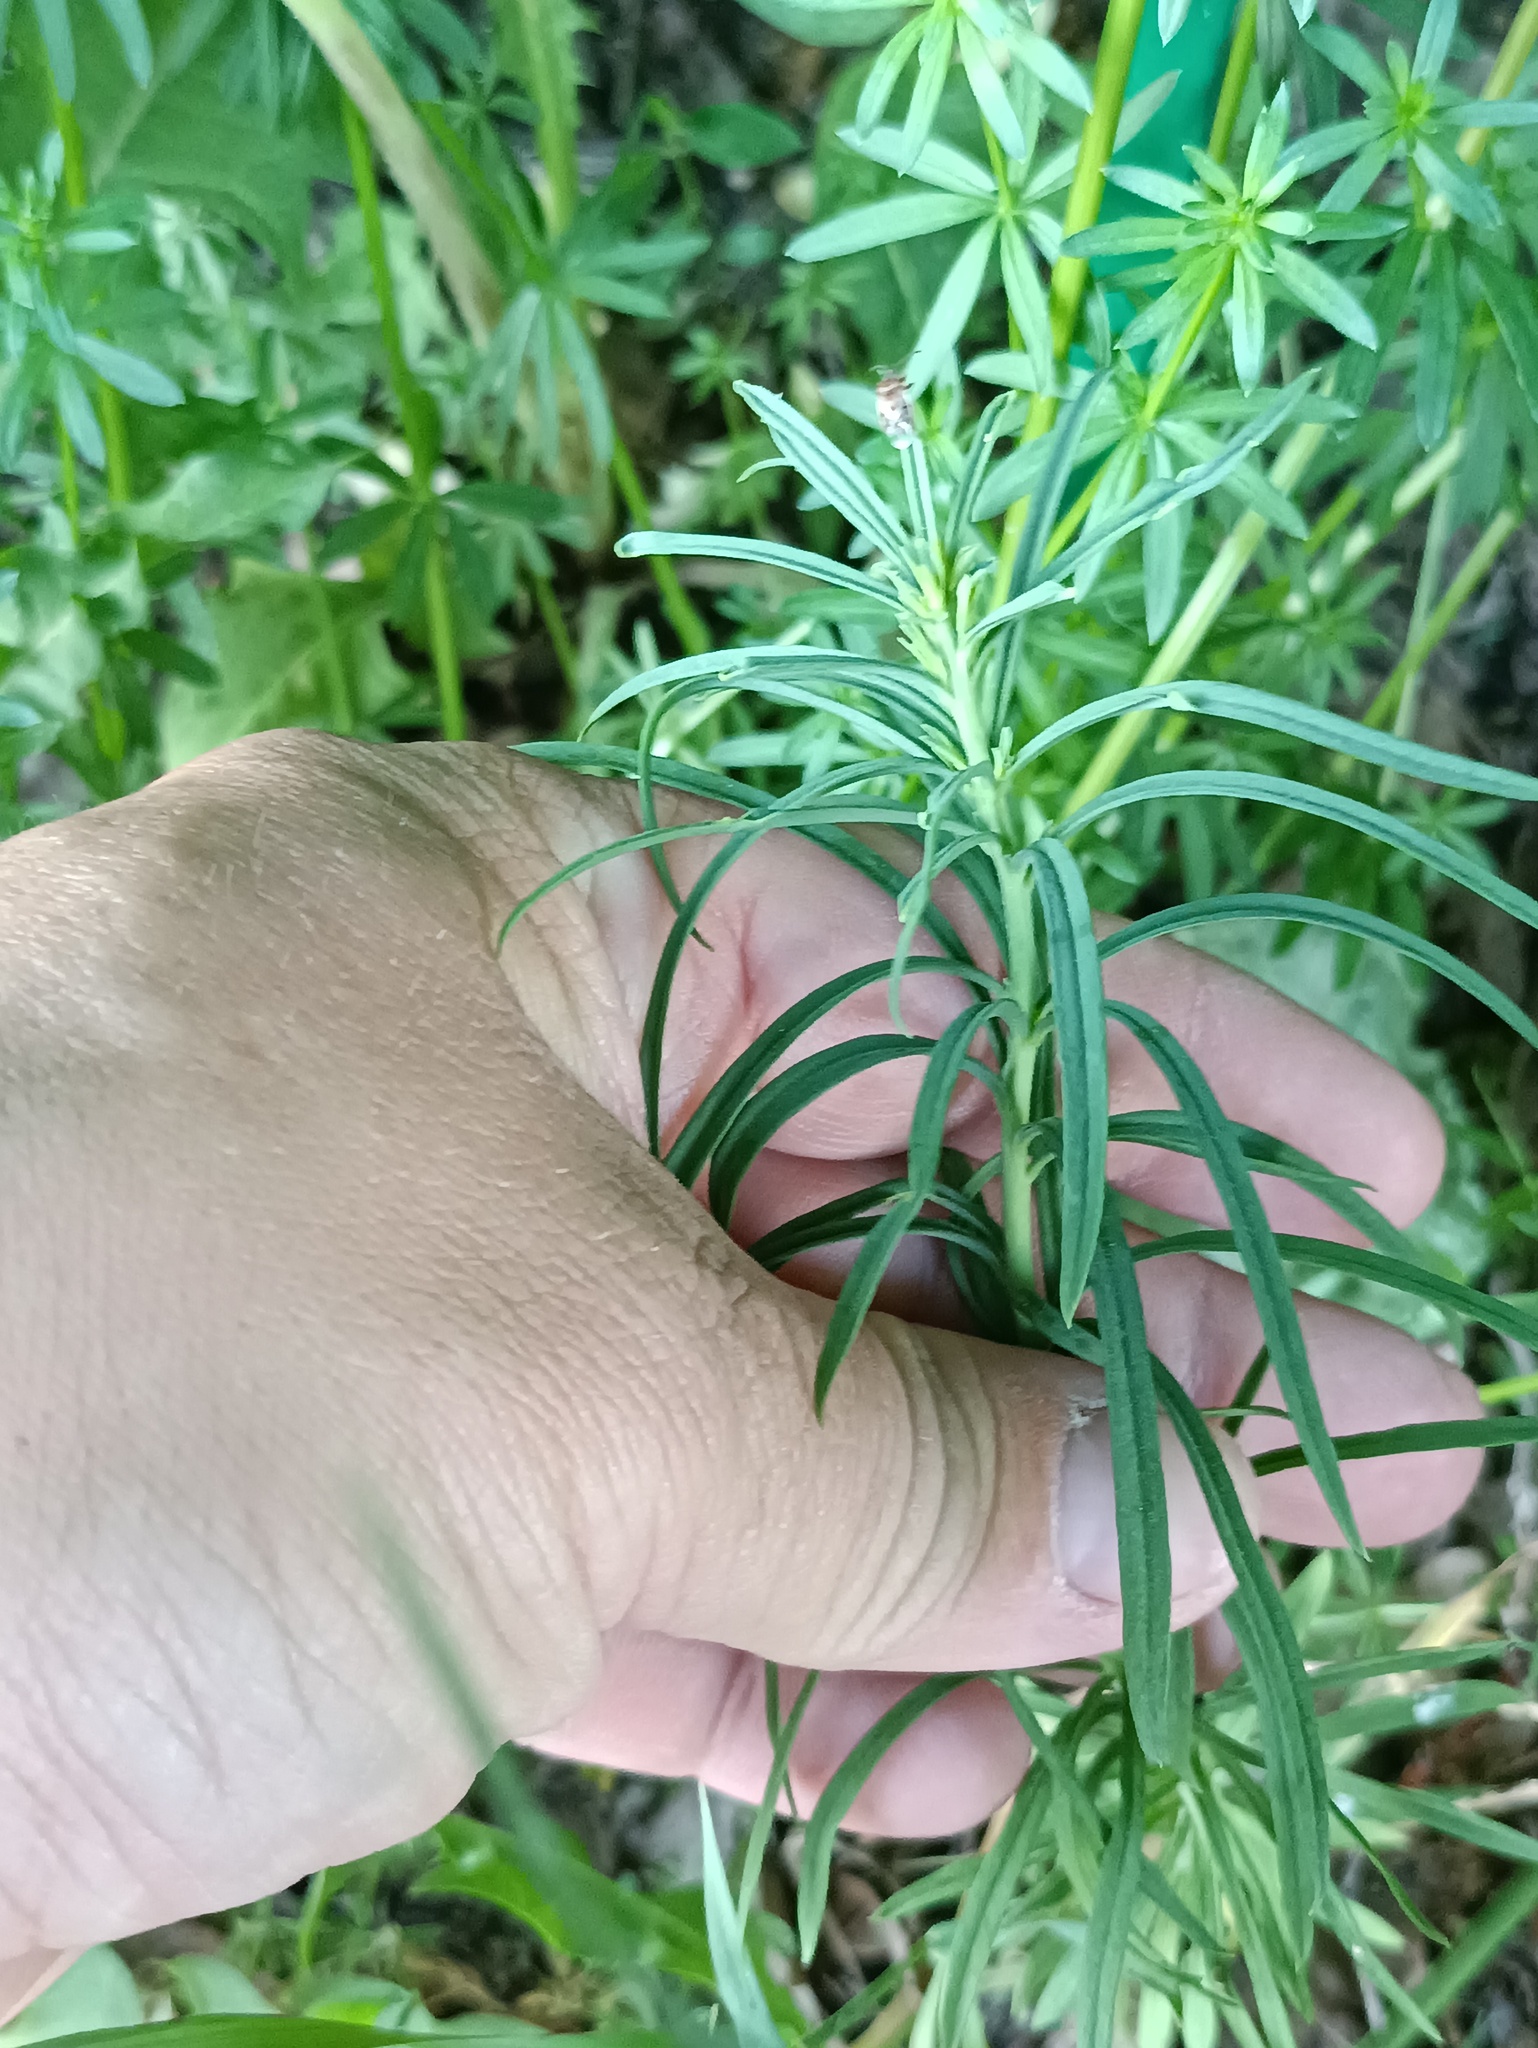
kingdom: Plantae
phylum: Tracheophyta
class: Magnoliopsida
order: Lamiales
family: Plantaginaceae
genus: Linaria
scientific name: Linaria vulgaris
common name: Butter and eggs
